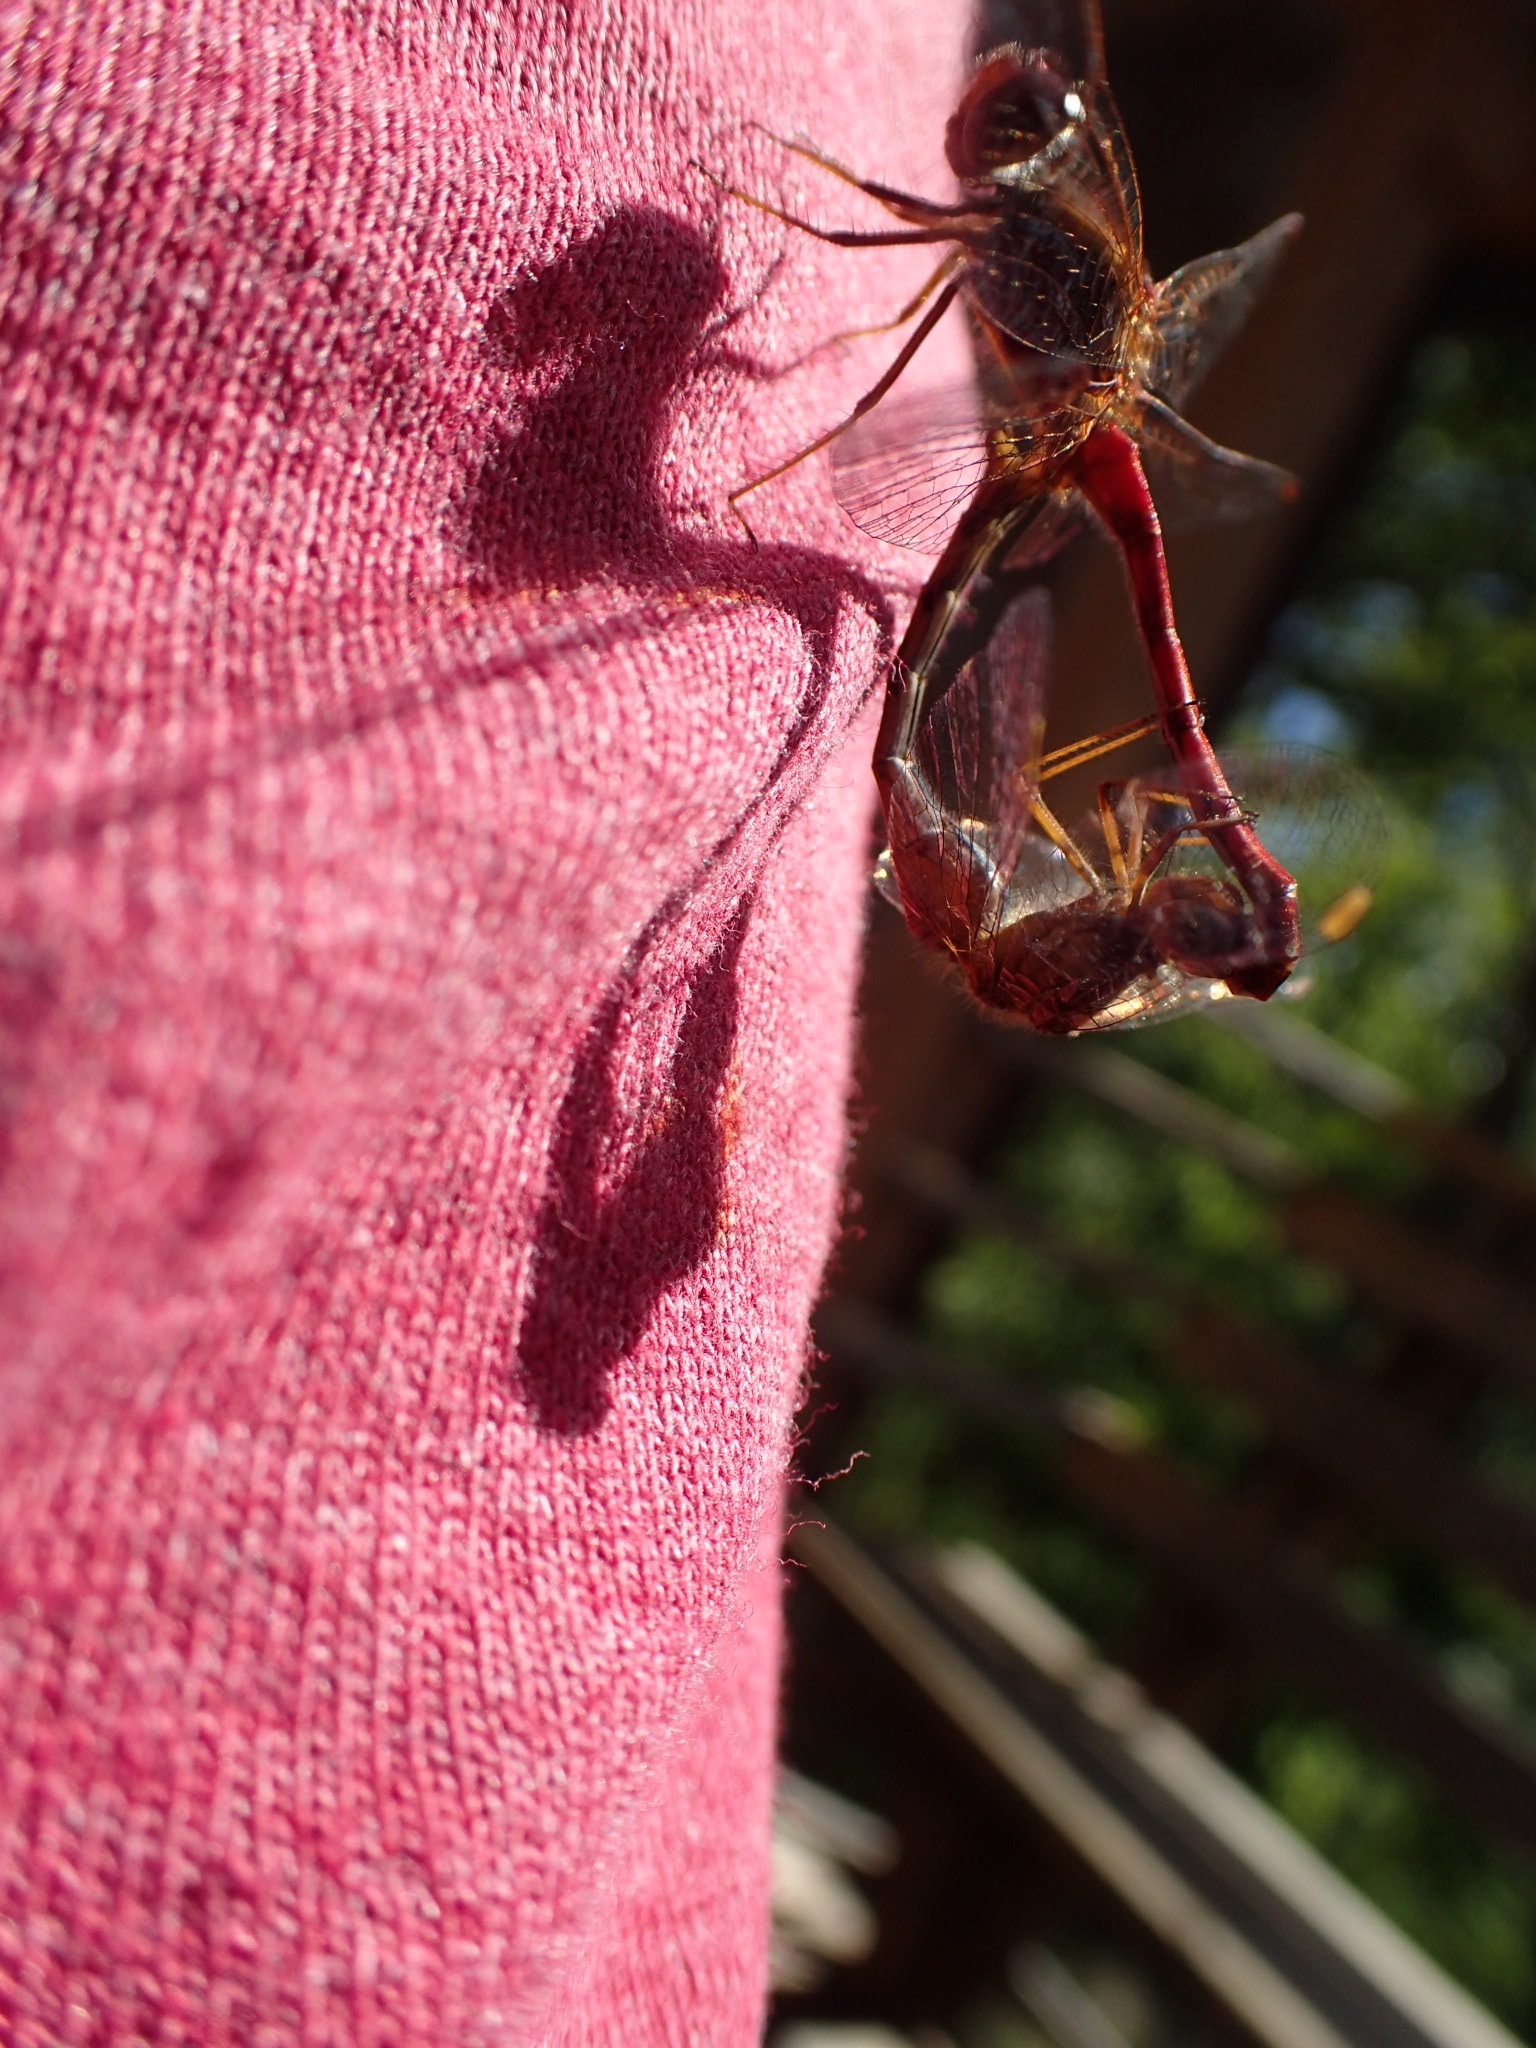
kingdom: Animalia
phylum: Arthropoda
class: Insecta
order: Odonata
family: Libellulidae
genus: Sympetrum
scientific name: Sympetrum vicinum
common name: Autumn meadowhawk
